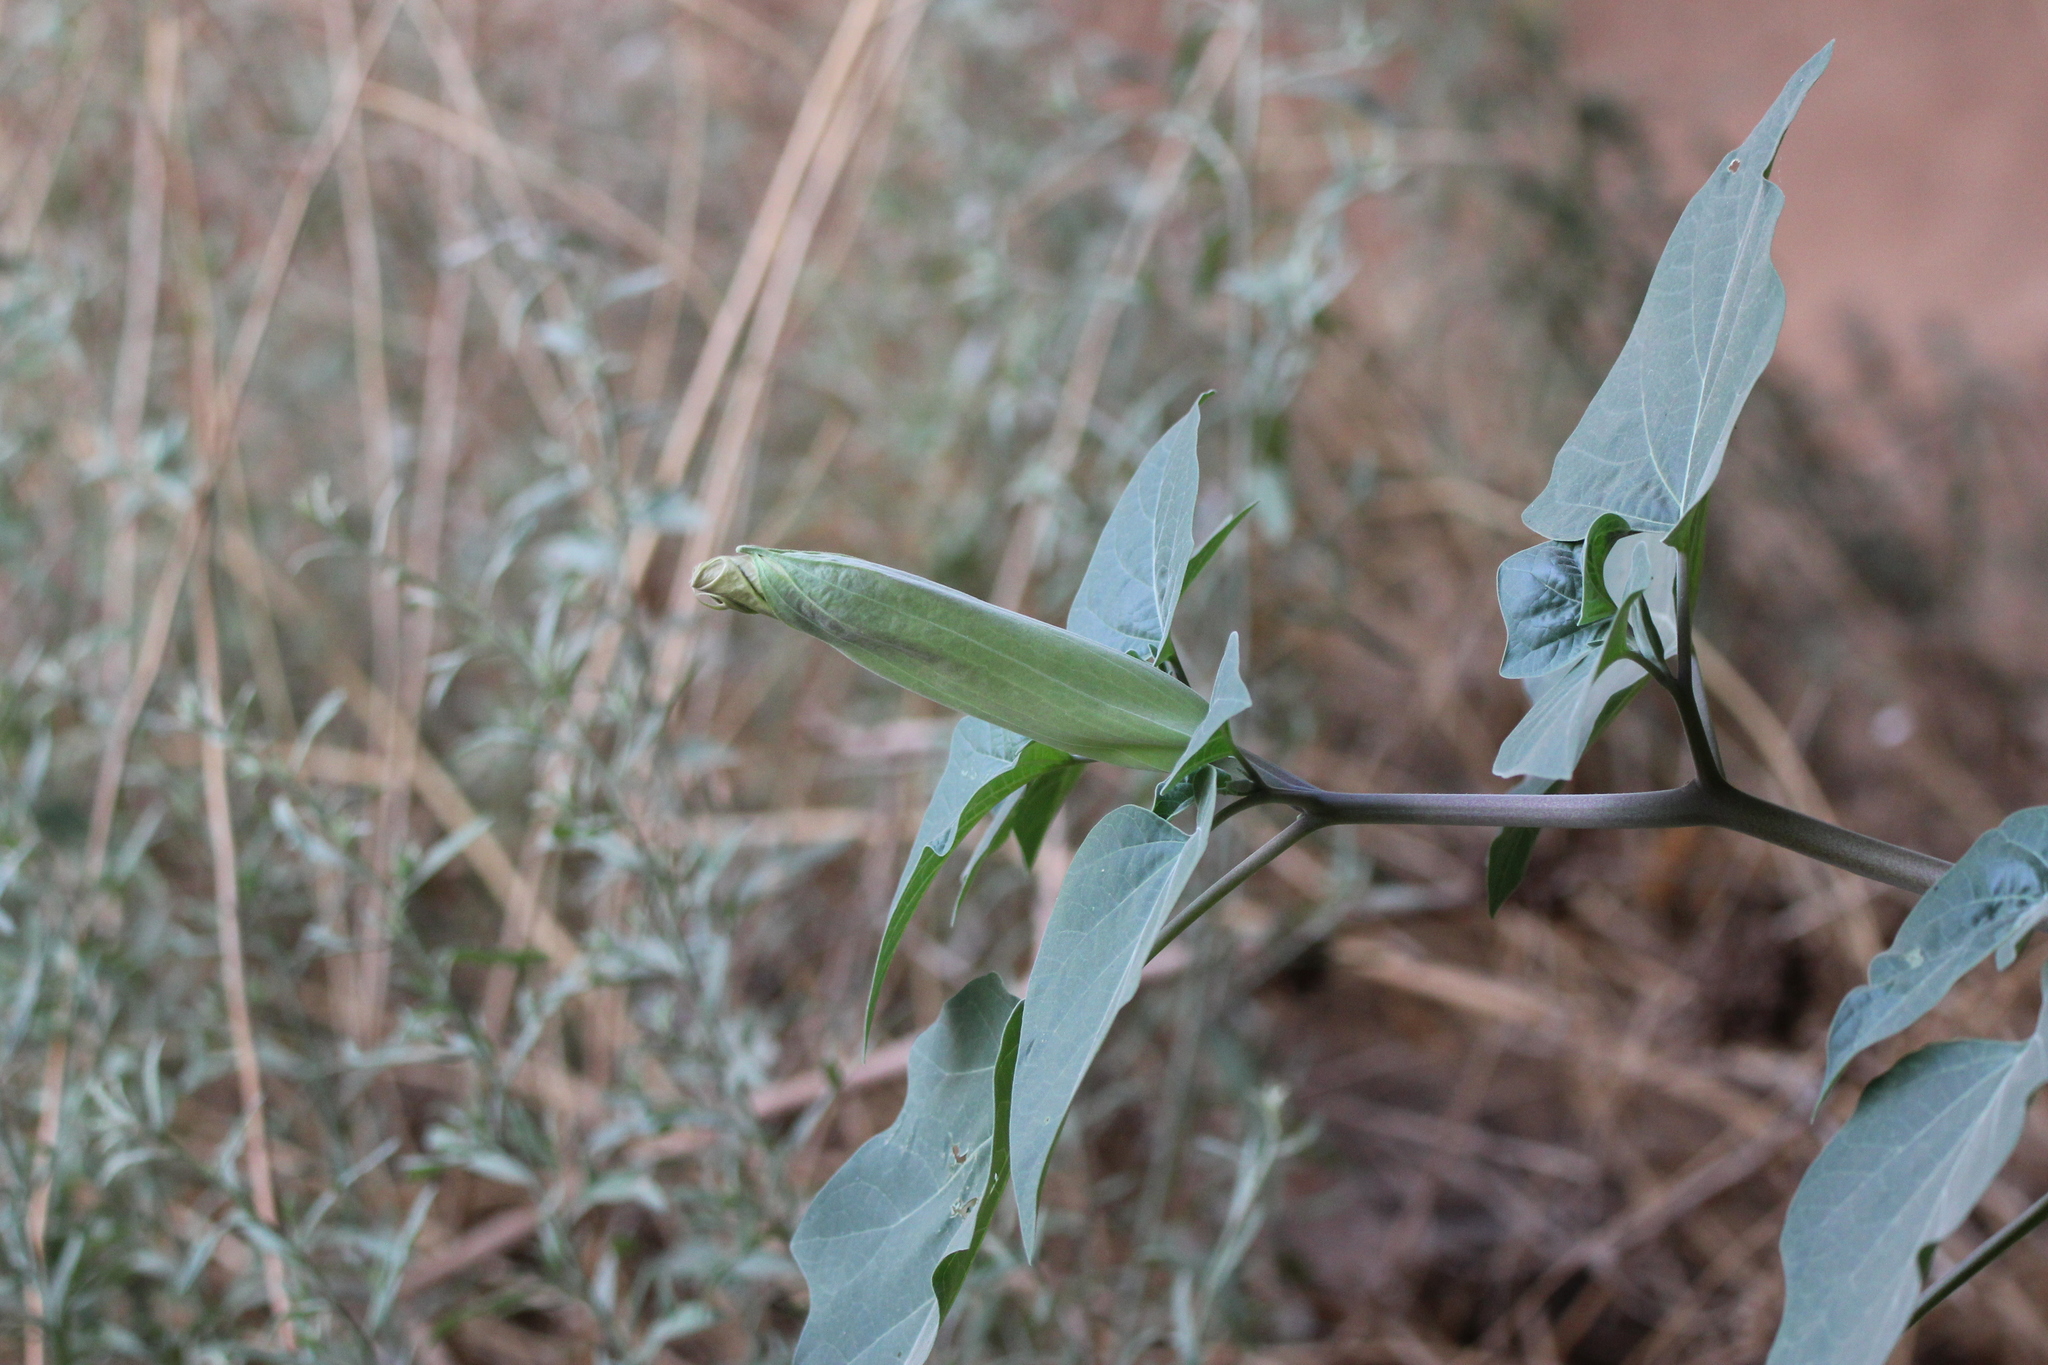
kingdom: Plantae
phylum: Tracheophyta
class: Magnoliopsida
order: Solanales
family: Solanaceae
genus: Datura
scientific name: Datura wrightii
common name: Sacred thorn-apple
